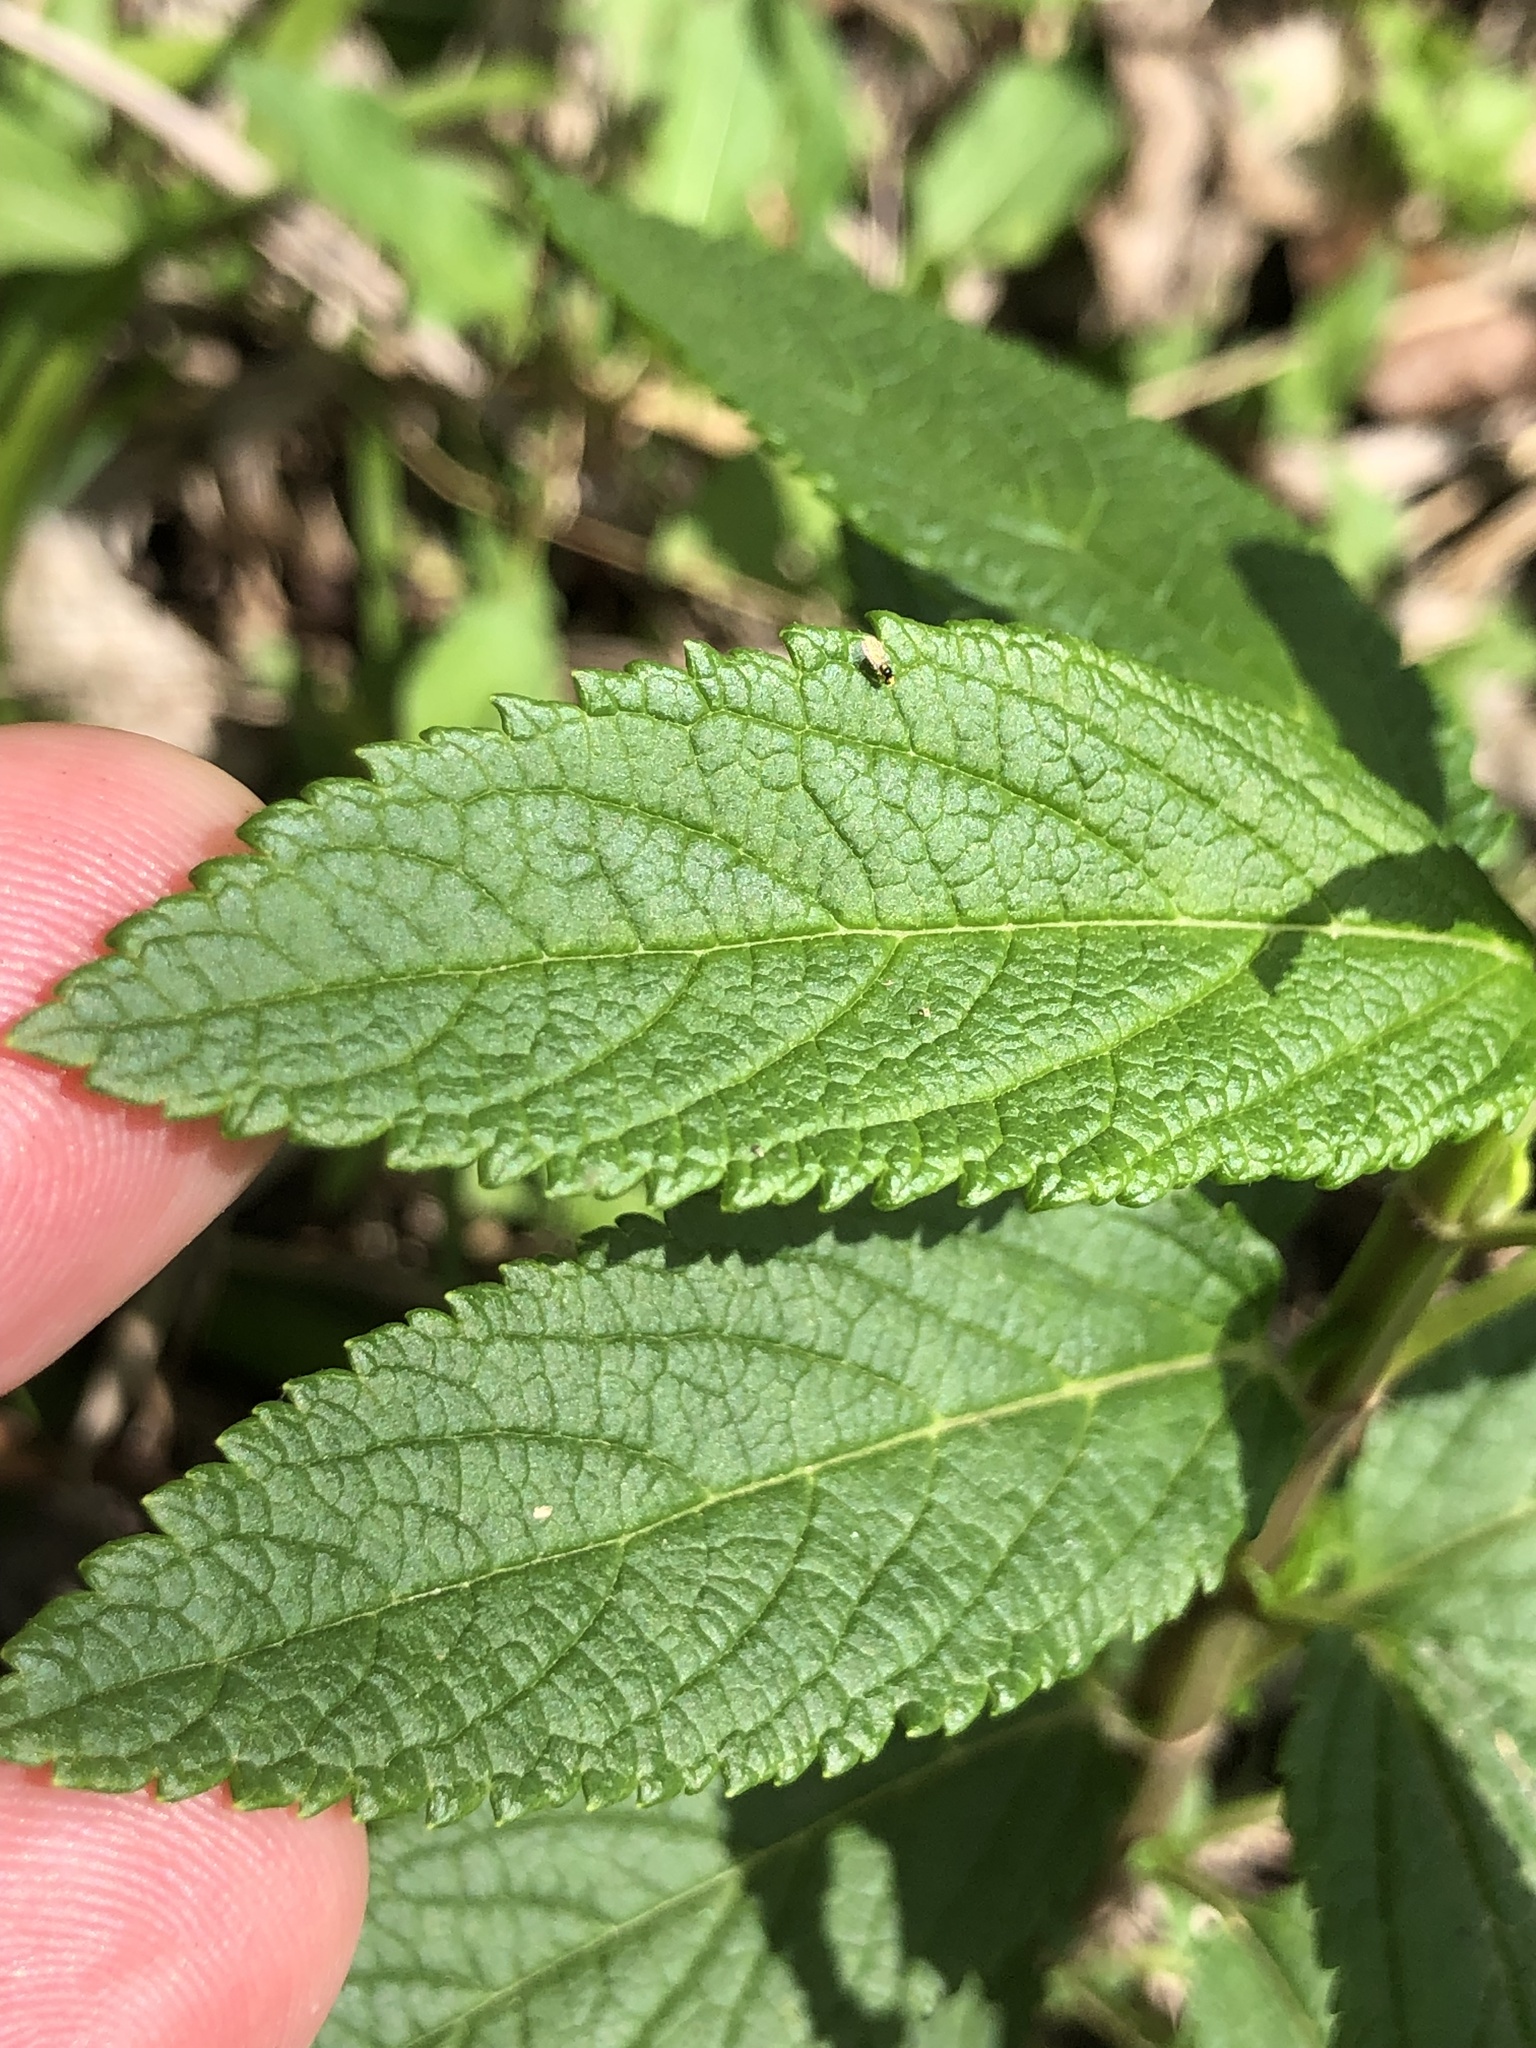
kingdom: Plantae
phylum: Tracheophyta
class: Magnoliopsida
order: Lamiales
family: Lamiaceae
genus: Teucrium
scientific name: Teucrium canadense
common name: American germander
